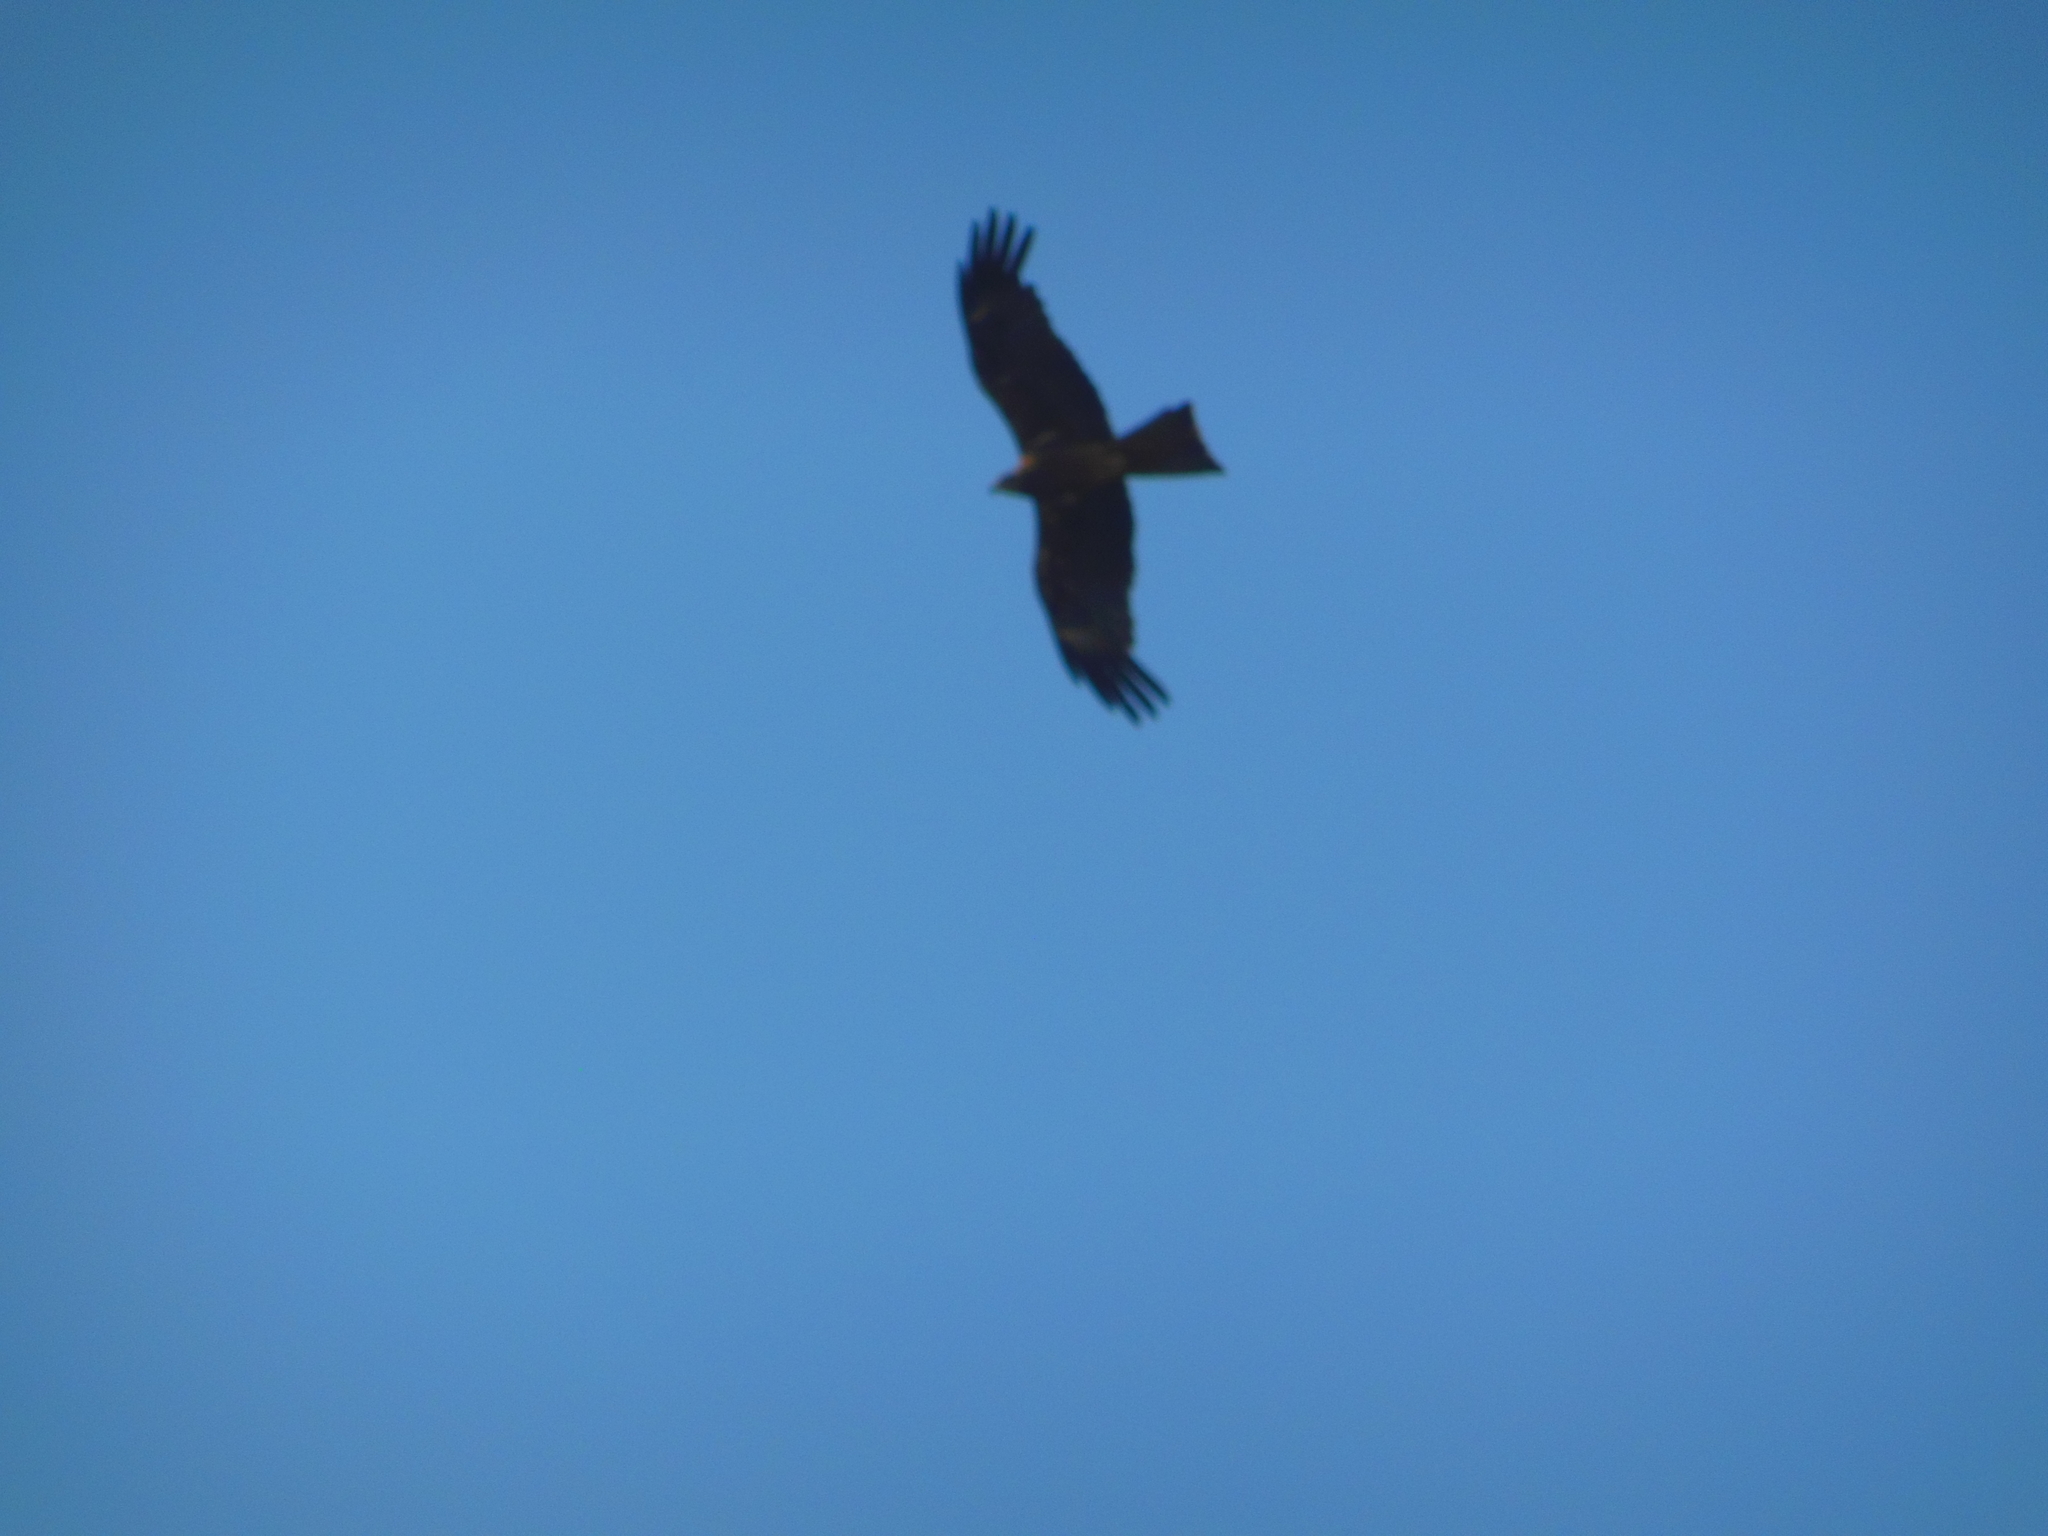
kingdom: Animalia
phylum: Chordata
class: Aves
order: Accipitriformes
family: Accipitridae
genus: Milvus
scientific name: Milvus migrans
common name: Black kite
